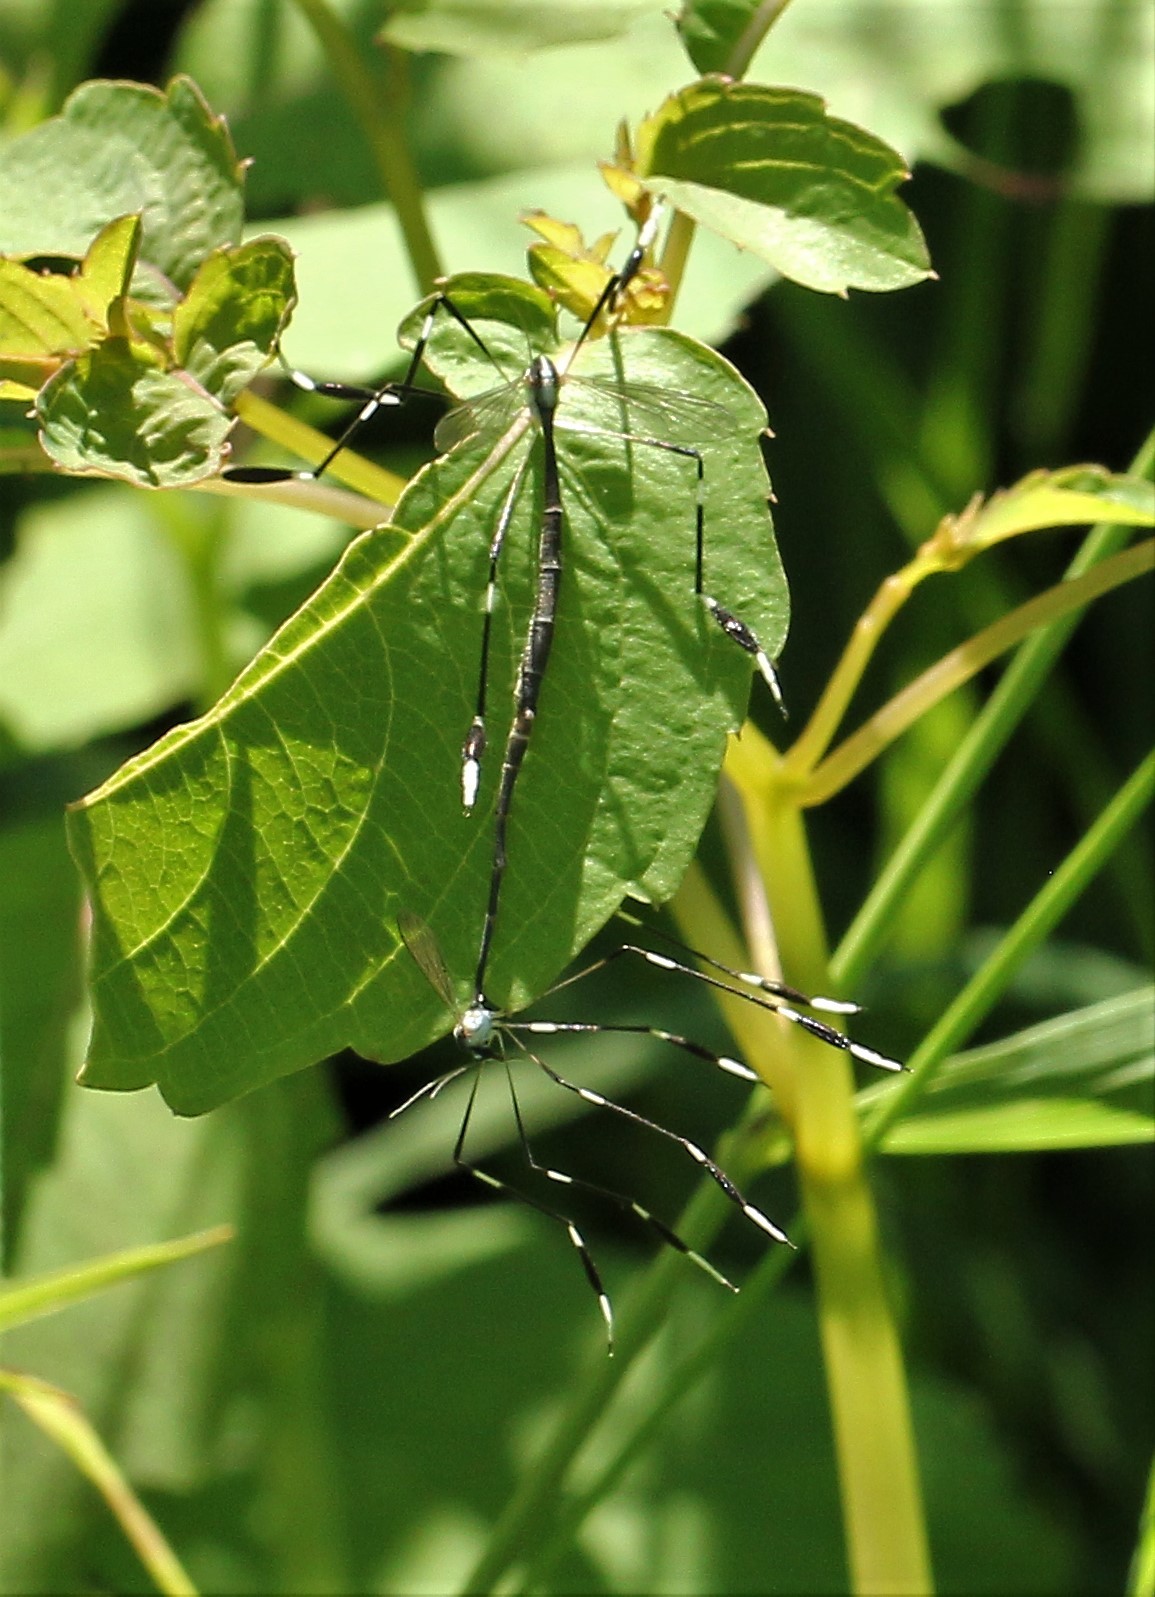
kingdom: Animalia
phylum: Arthropoda
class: Insecta
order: Diptera
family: Ptychopteridae
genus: Bittacomorpha
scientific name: Bittacomorpha clavipes
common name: Eastern phantom crane fly
